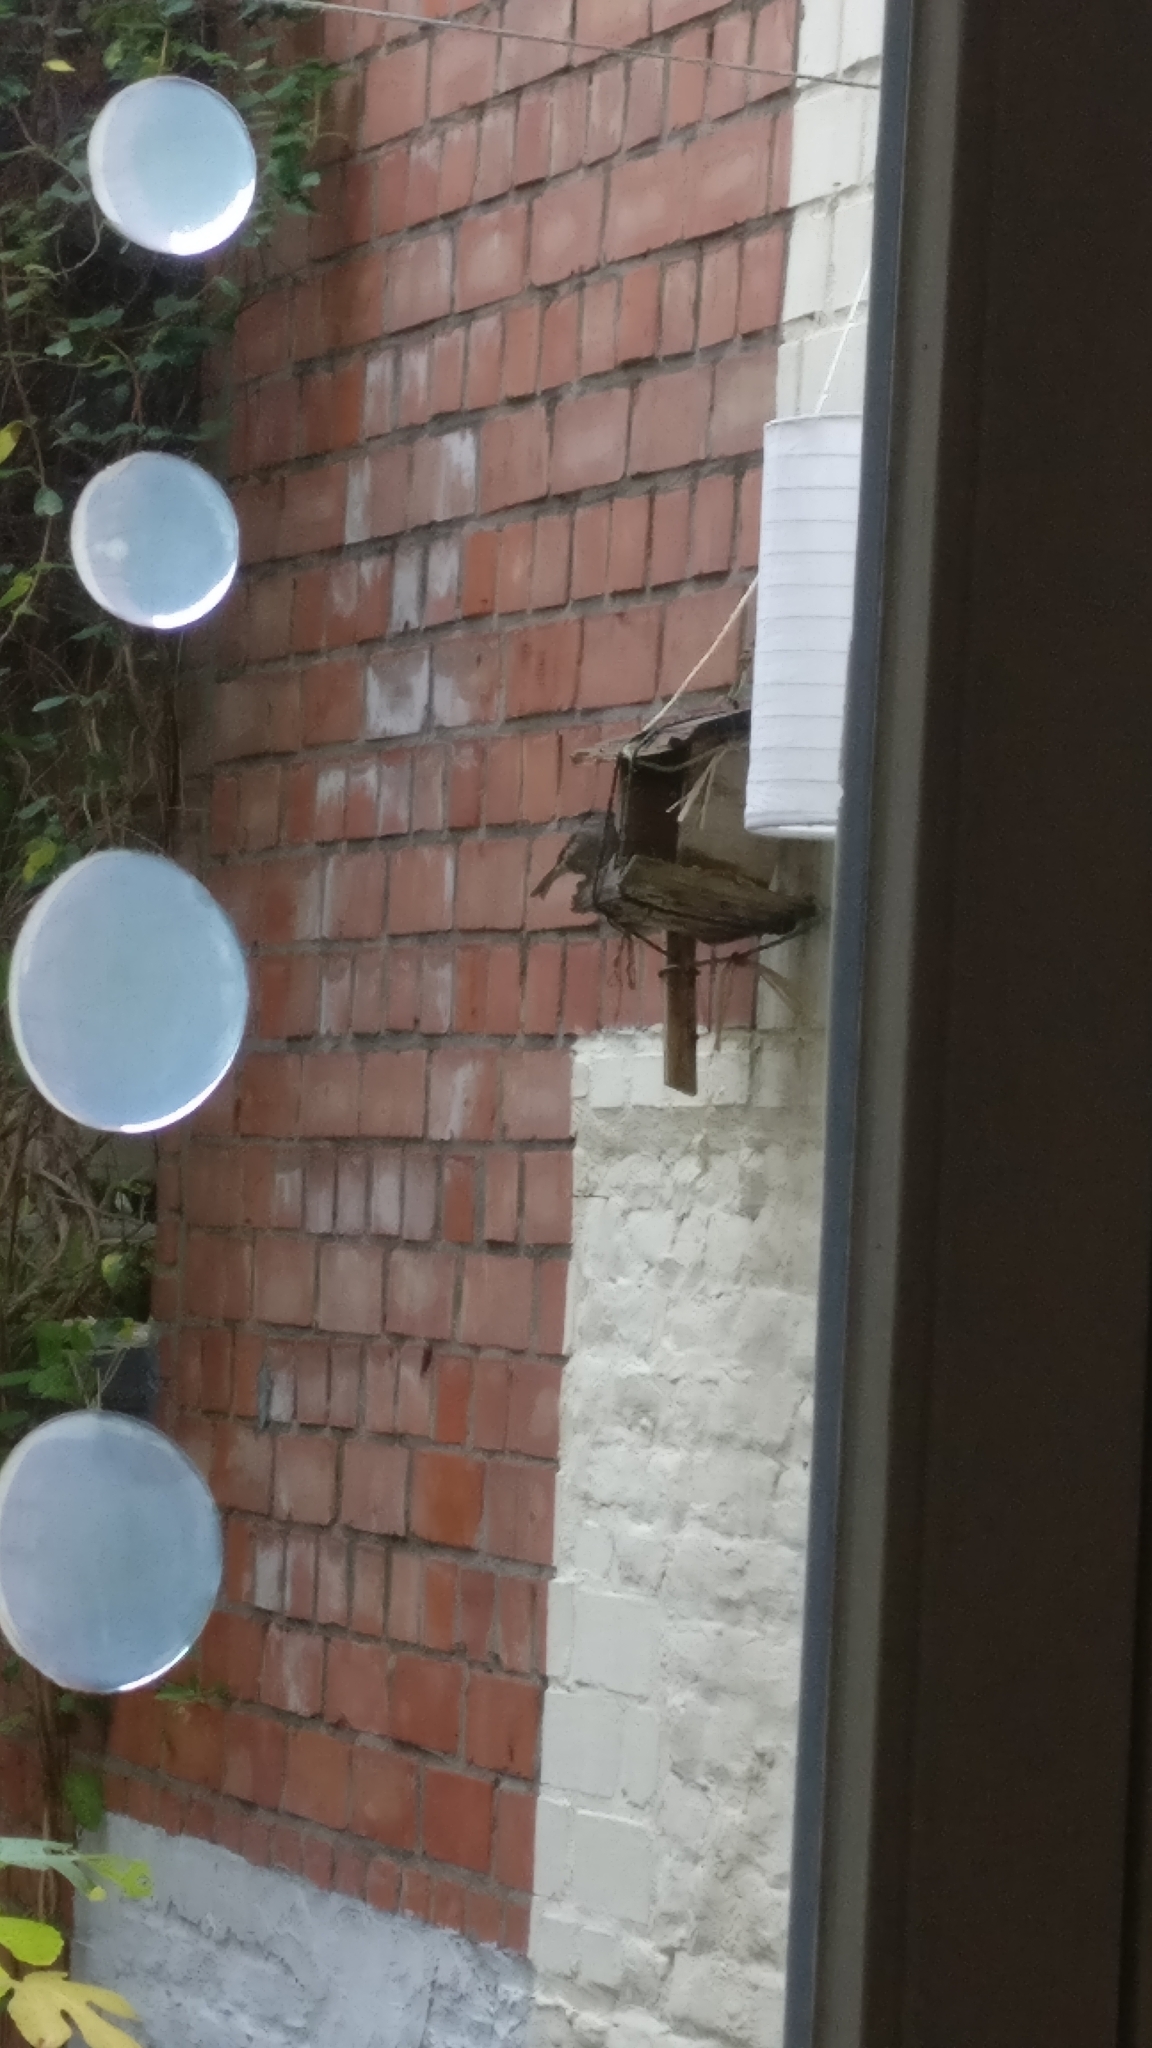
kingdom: Animalia
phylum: Chordata
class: Aves
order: Passeriformes
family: Prunellidae
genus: Prunella
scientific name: Prunella modularis
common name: Dunnock
